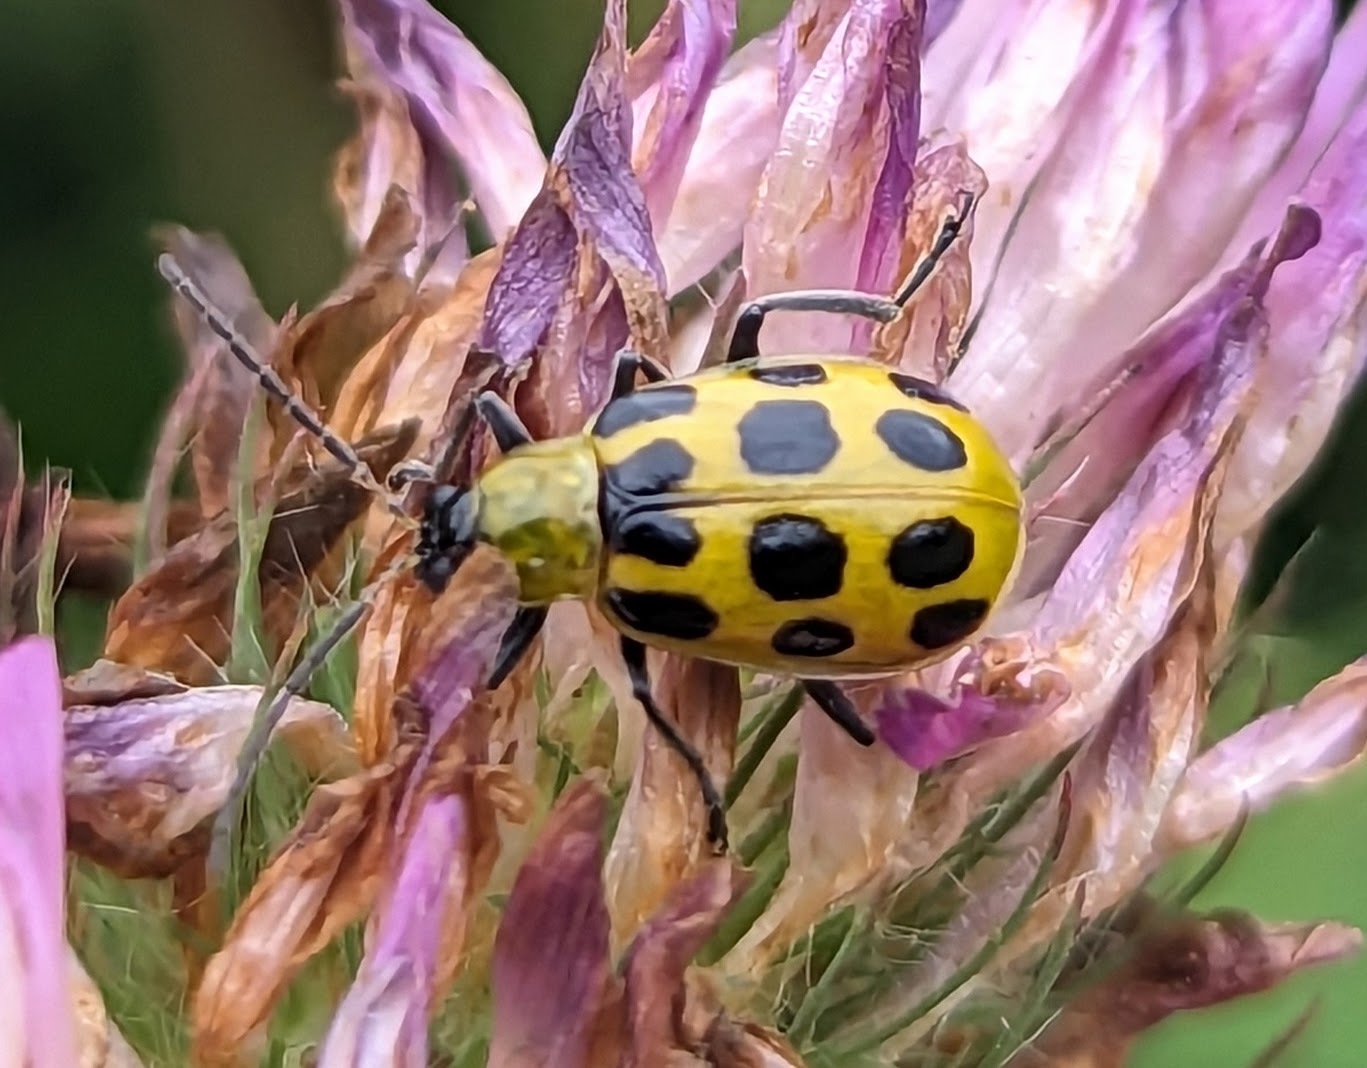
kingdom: Animalia
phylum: Arthropoda
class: Insecta
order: Coleoptera
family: Chrysomelidae
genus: Diabrotica
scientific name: Diabrotica undecimpunctata
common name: Spotted cucumber beetle
